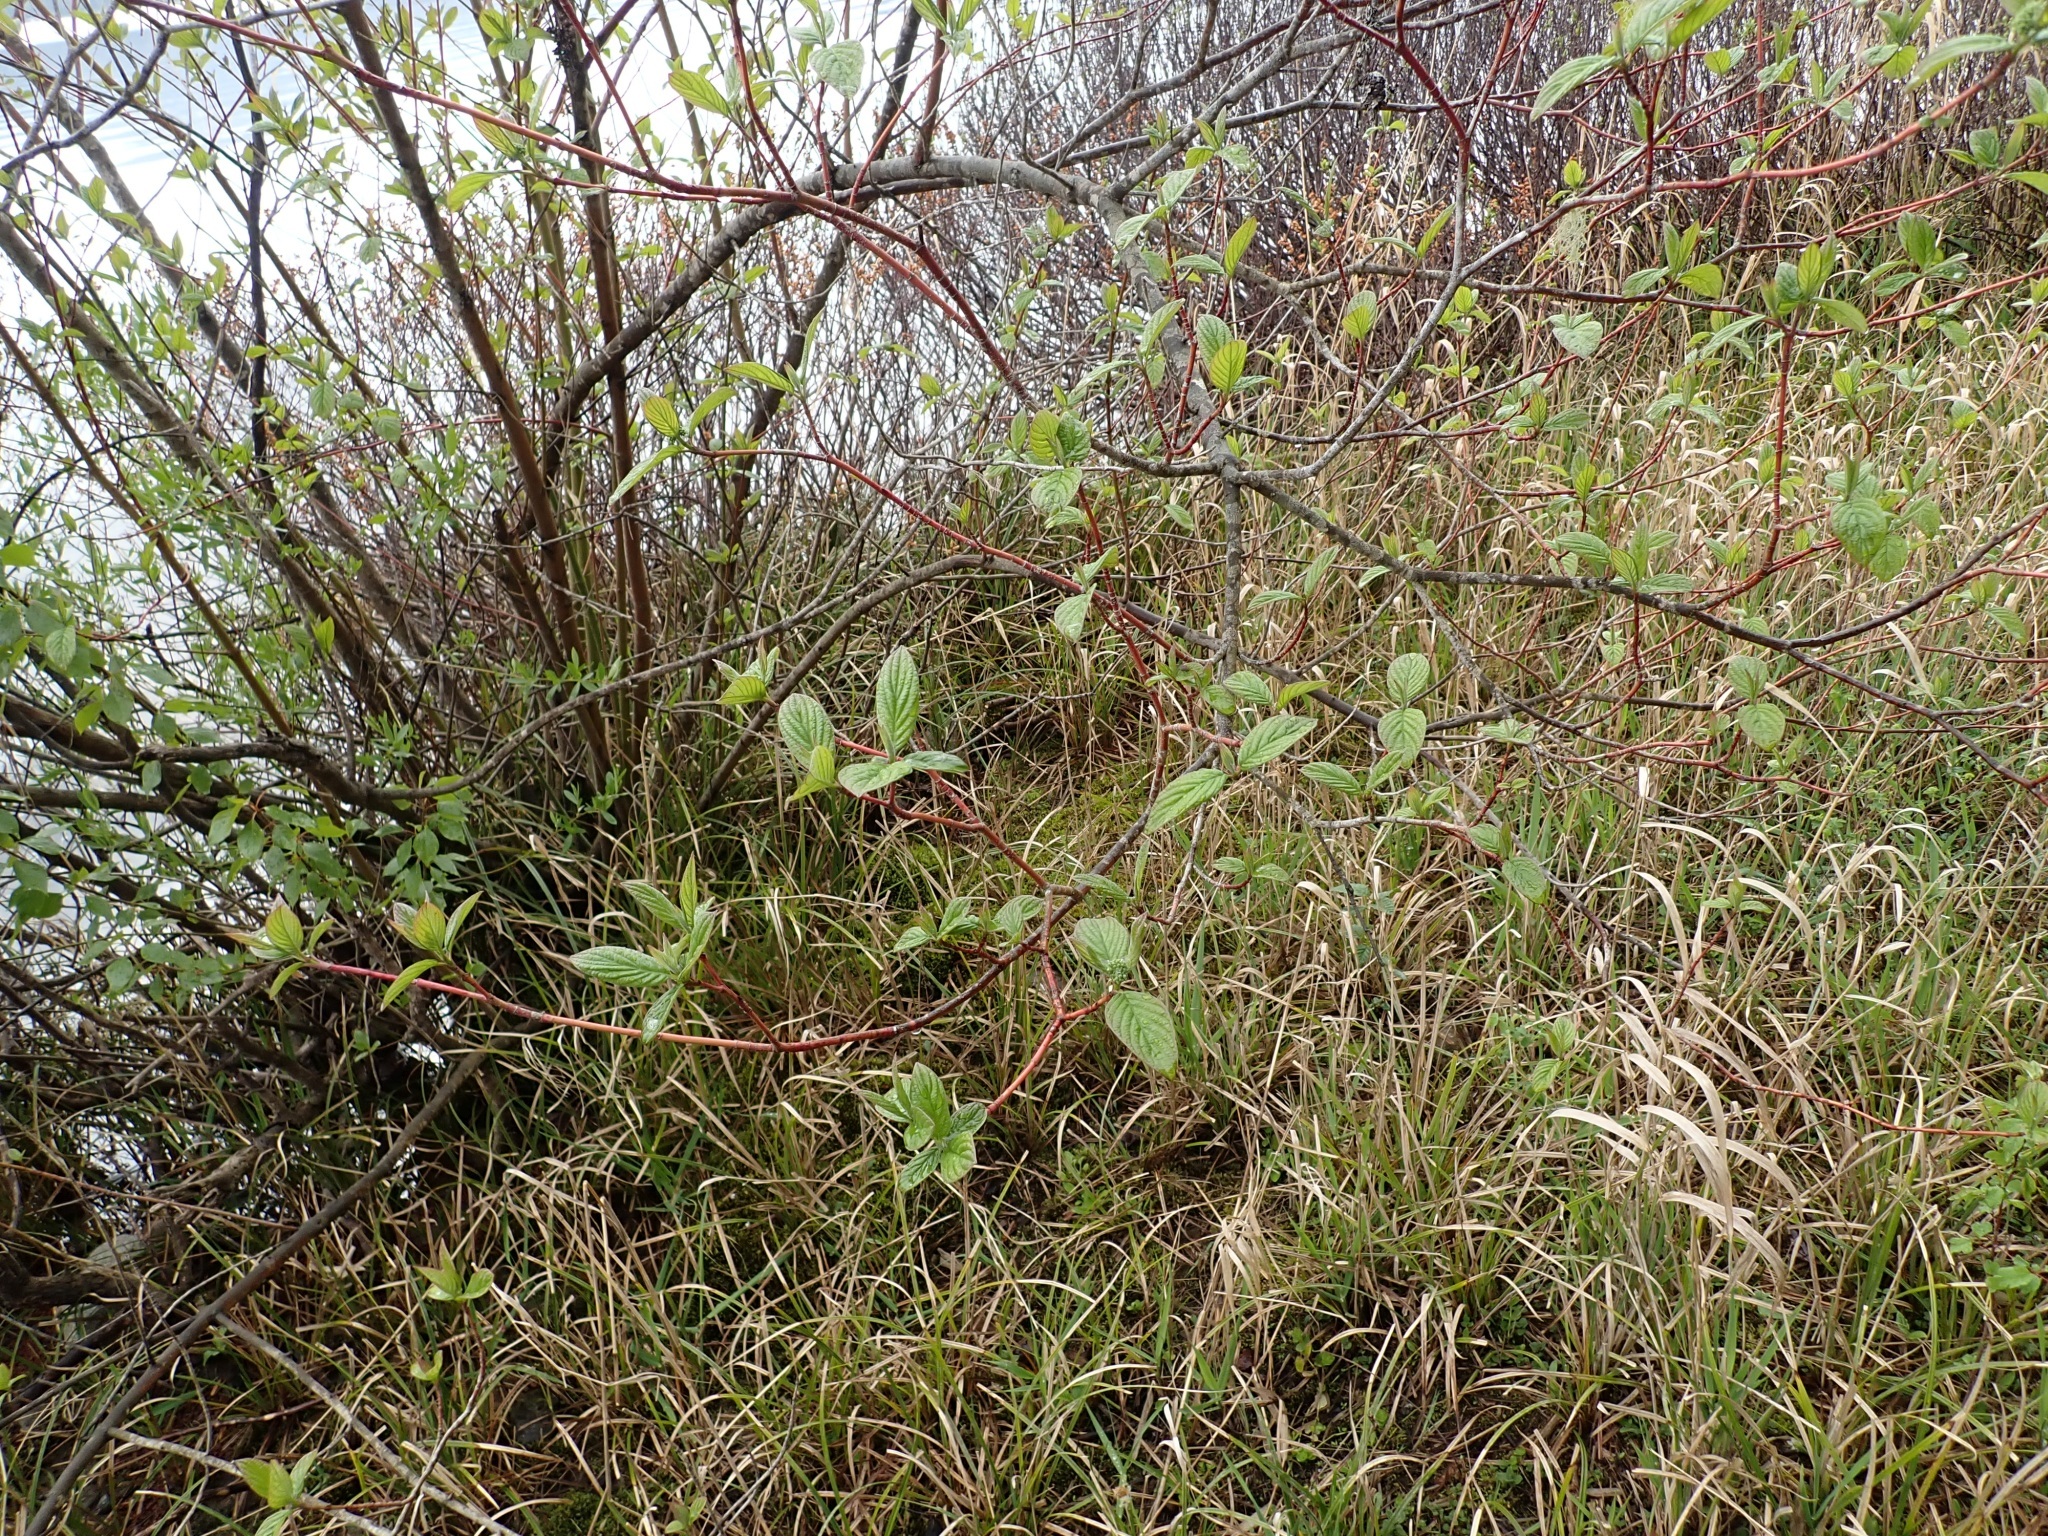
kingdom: Plantae
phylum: Tracheophyta
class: Magnoliopsida
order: Cornales
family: Cornaceae
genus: Cornus
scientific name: Cornus sericea
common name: Red-osier dogwood
